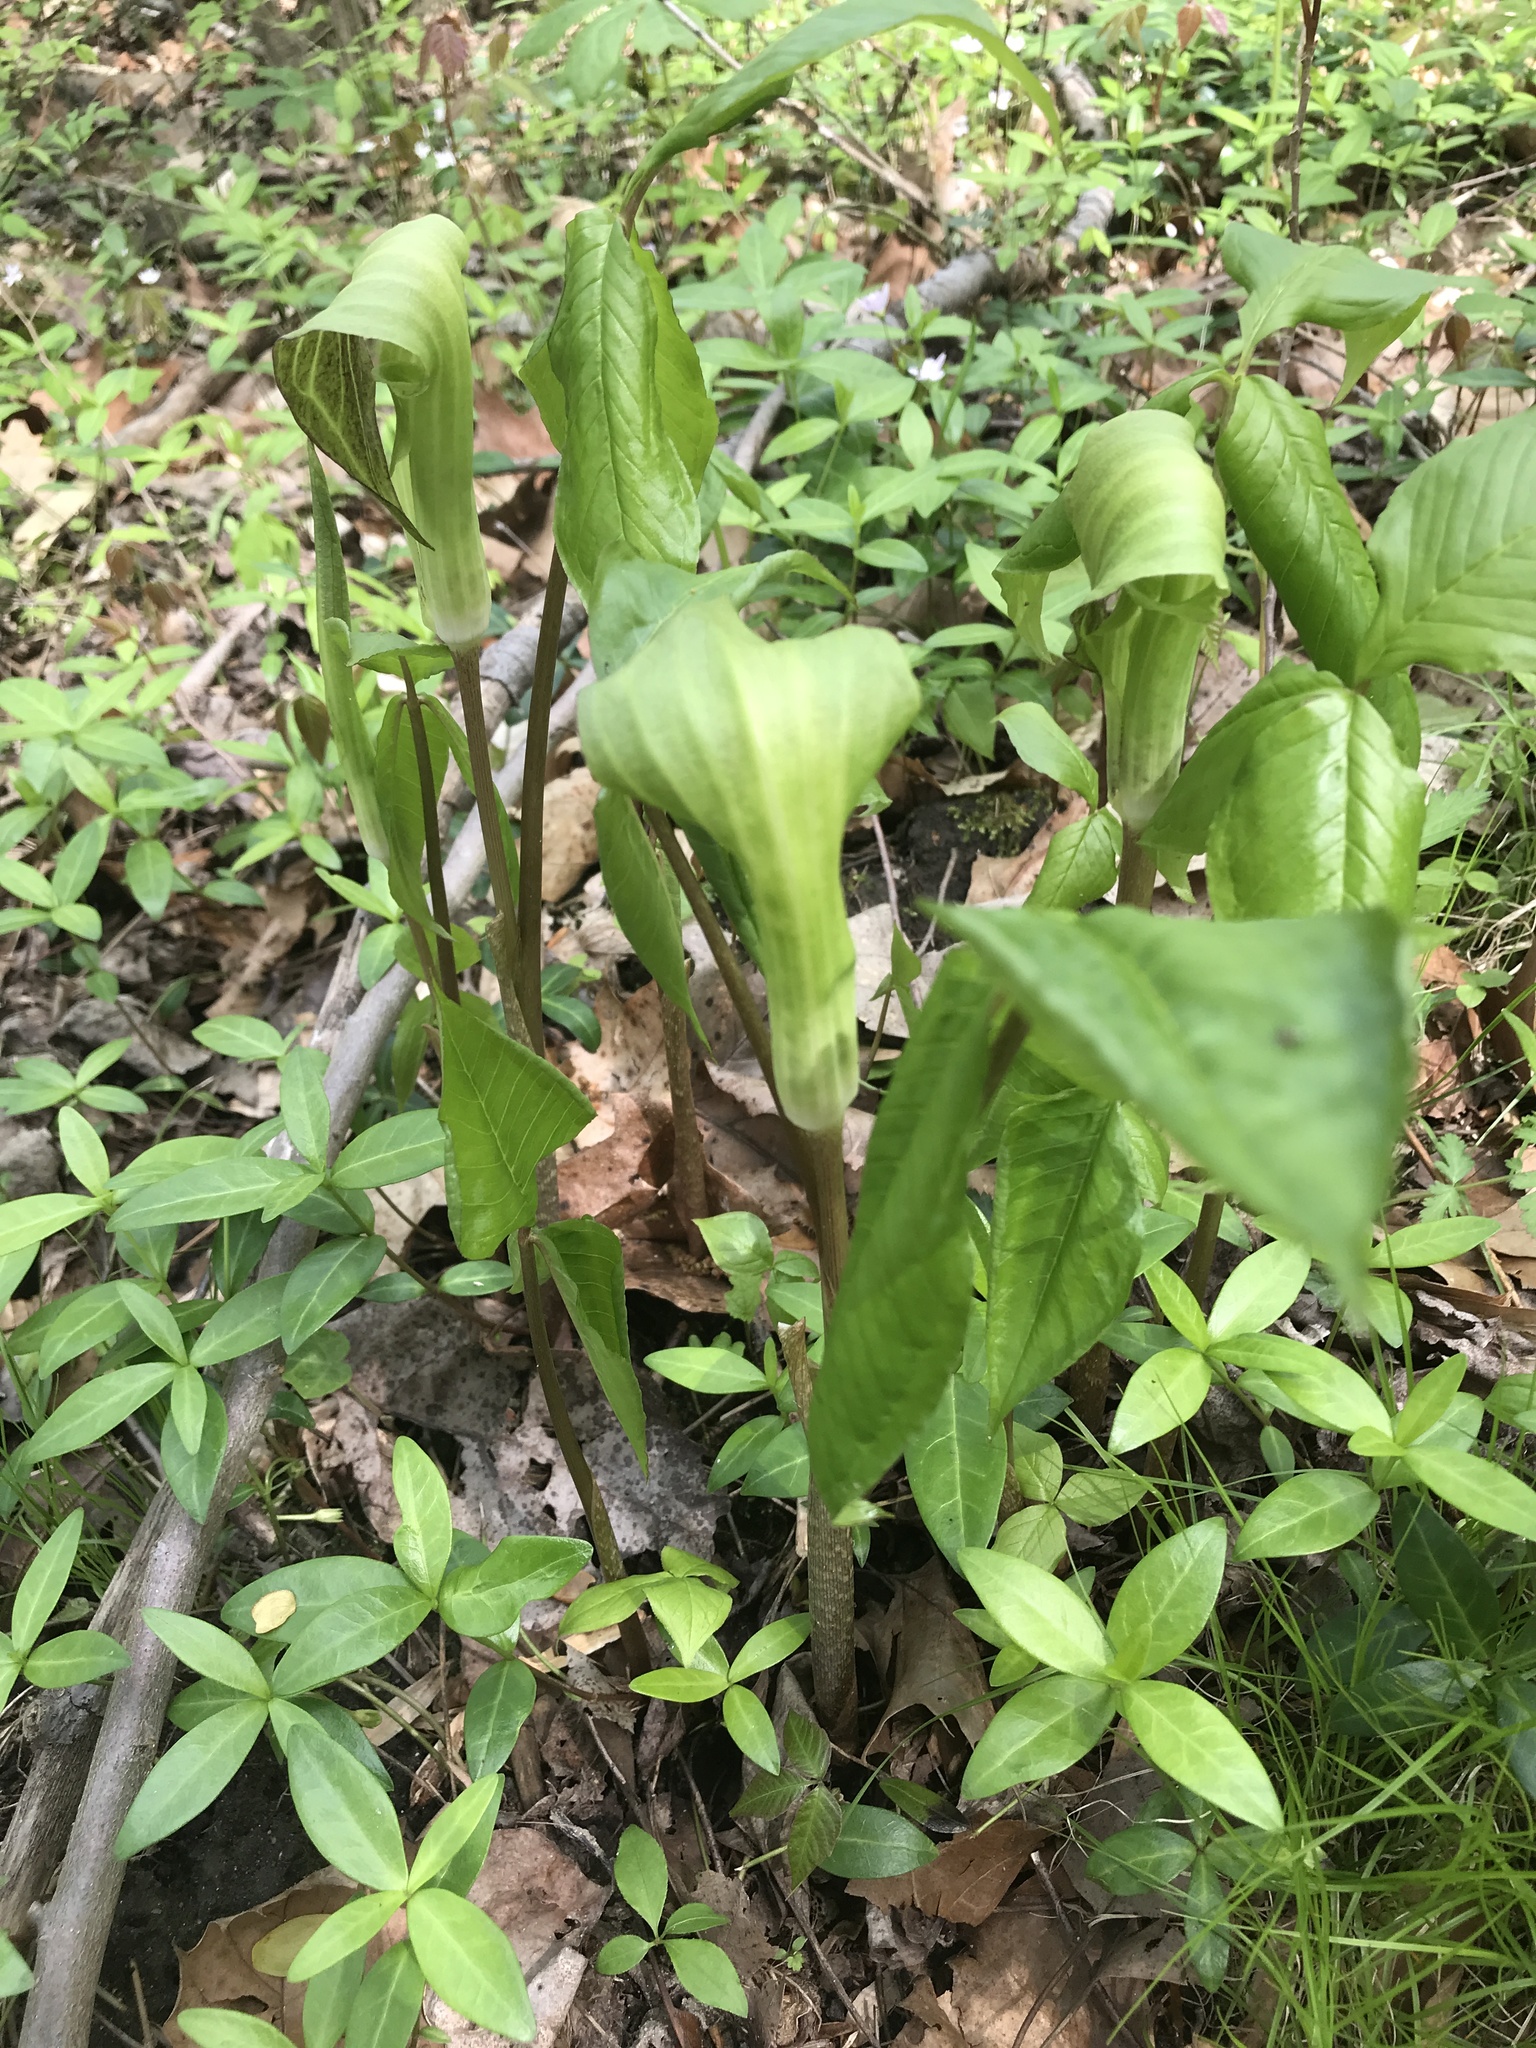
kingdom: Plantae
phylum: Tracheophyta
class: Liliopsida
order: Alismatales
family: Araceae
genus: Arisaema
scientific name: Arisaema triphyllum
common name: Jack-in-the-pulpit
